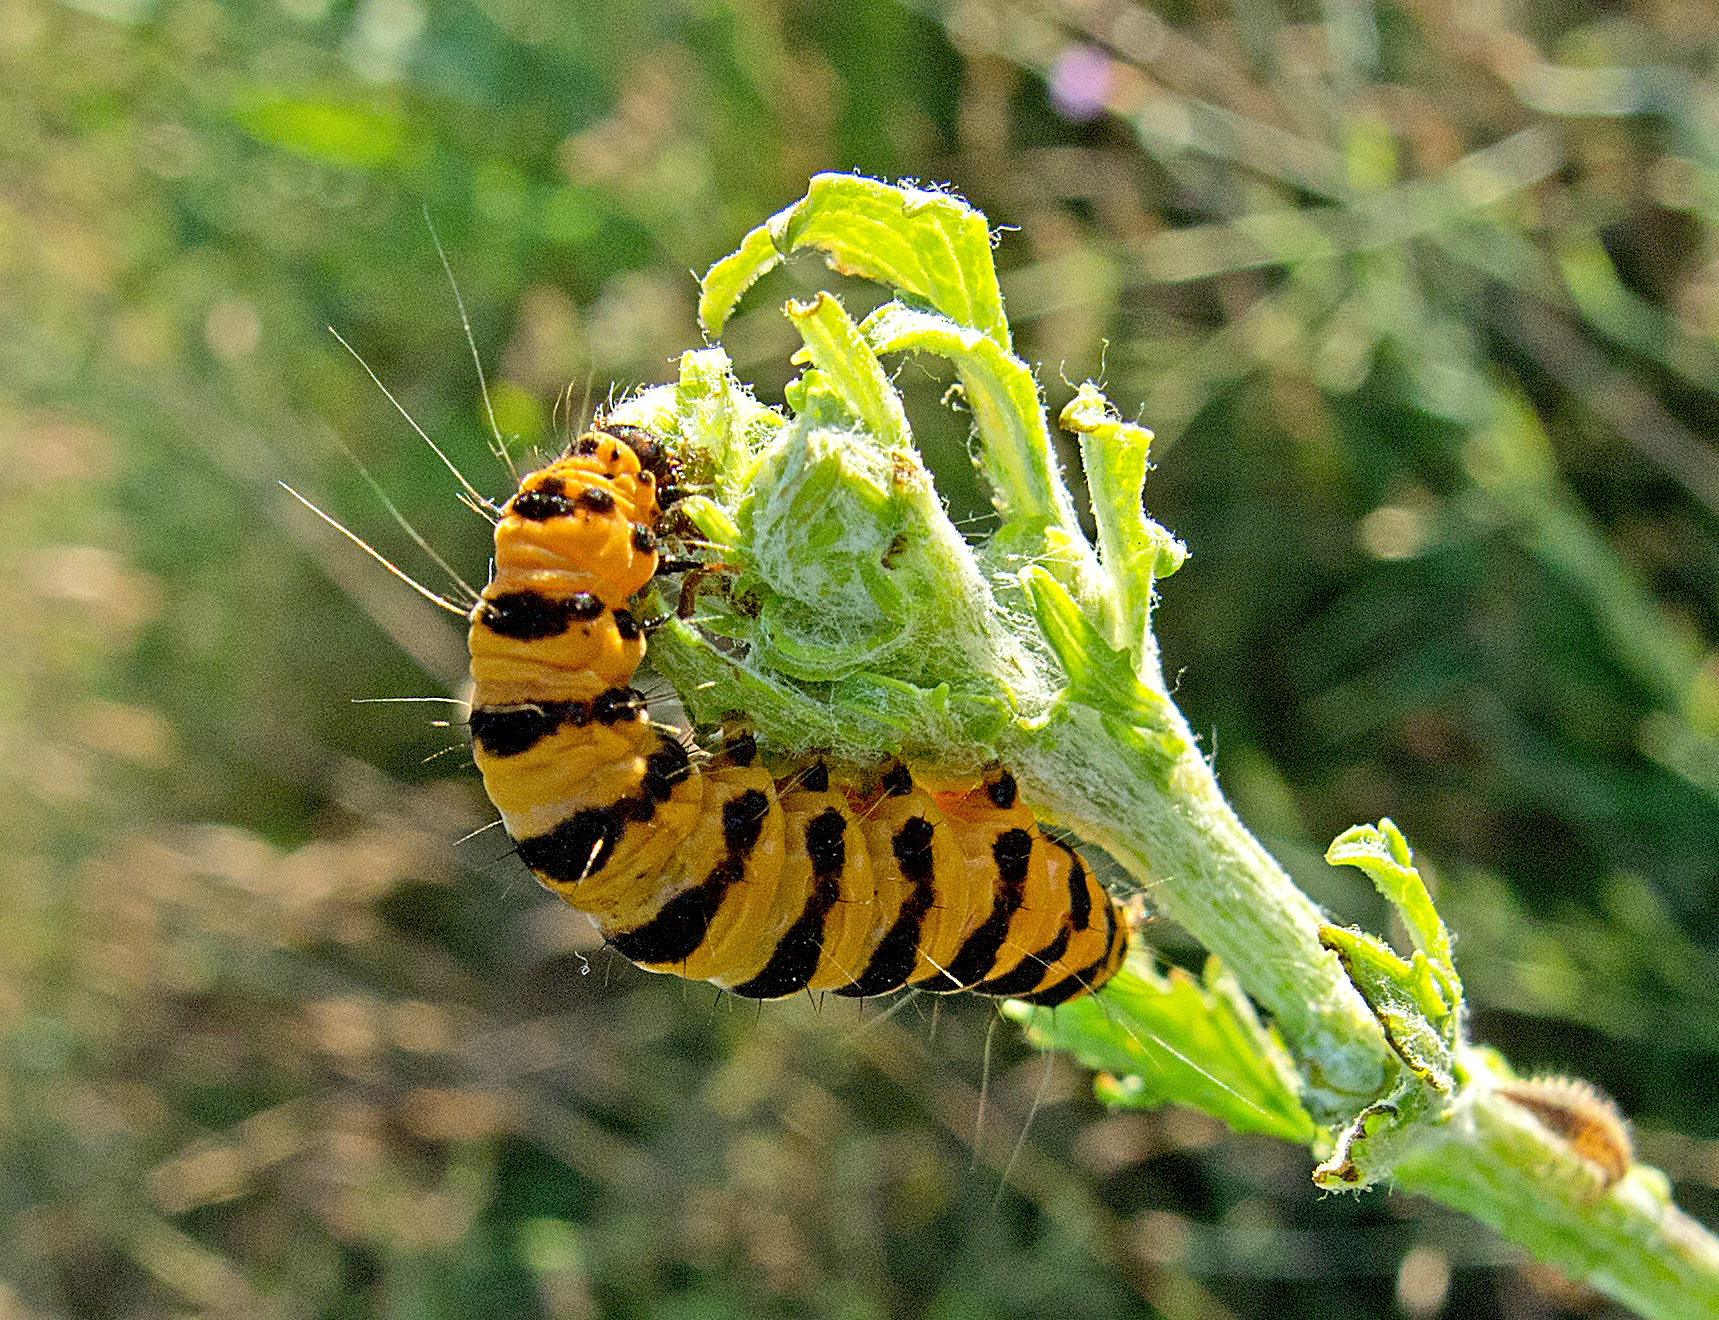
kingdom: Animalia
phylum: Arthropoda
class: Insecta
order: Lepidoptera
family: Erebidae
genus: Tyria
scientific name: Tyria jacobaeae
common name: Cinnabar
